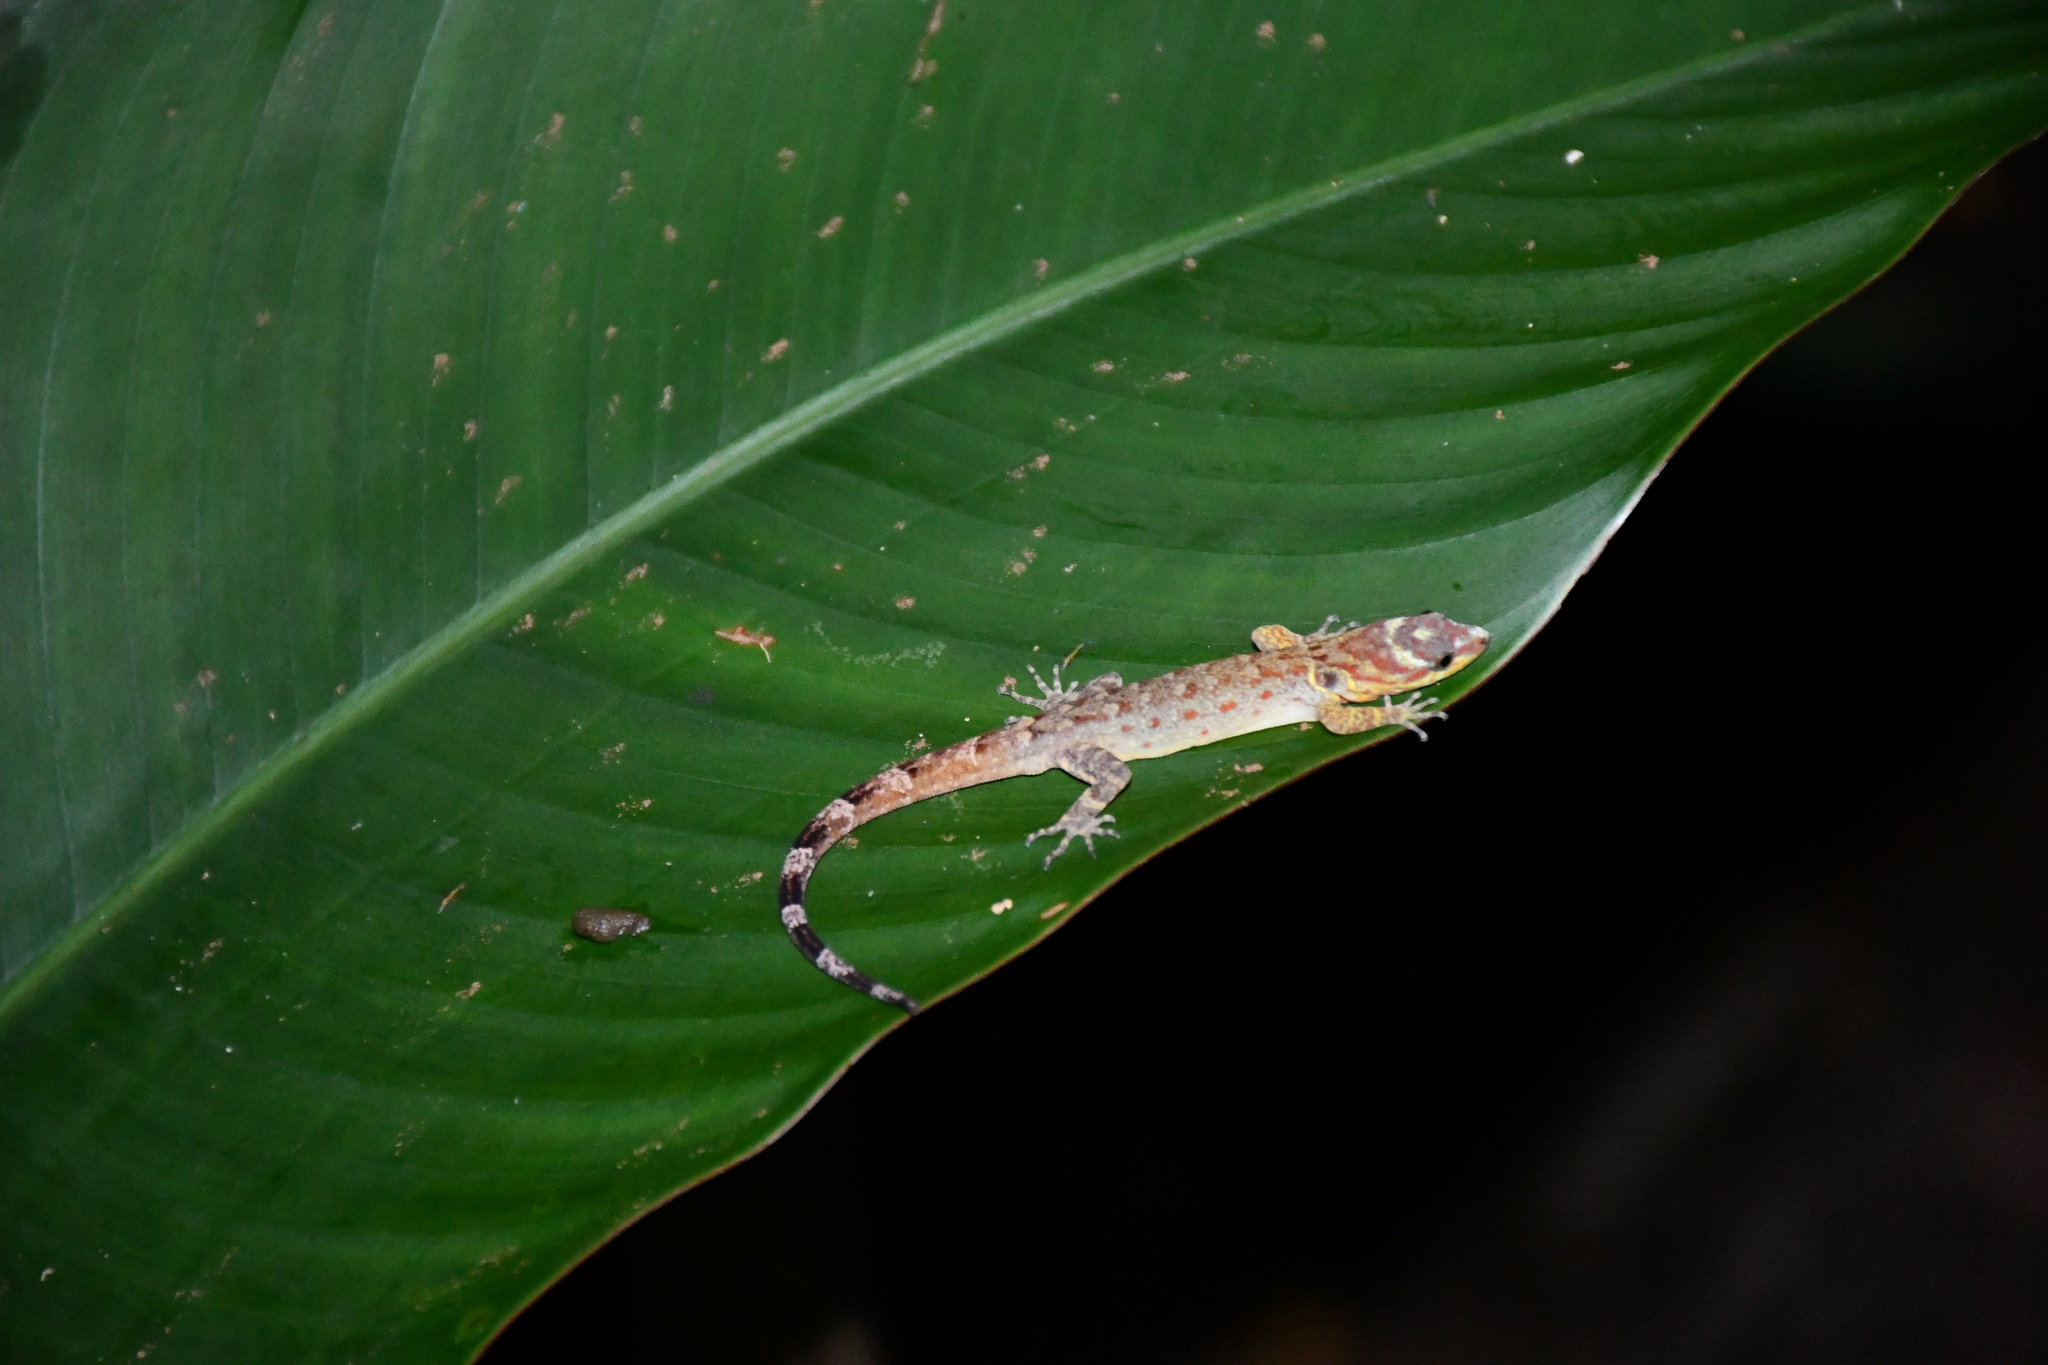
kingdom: Animalia
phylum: Chordata
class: Squamata
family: Sphaerodactylidae
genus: Gonatodes
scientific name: Gonatodes humeralis
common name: South american clawed gecko
